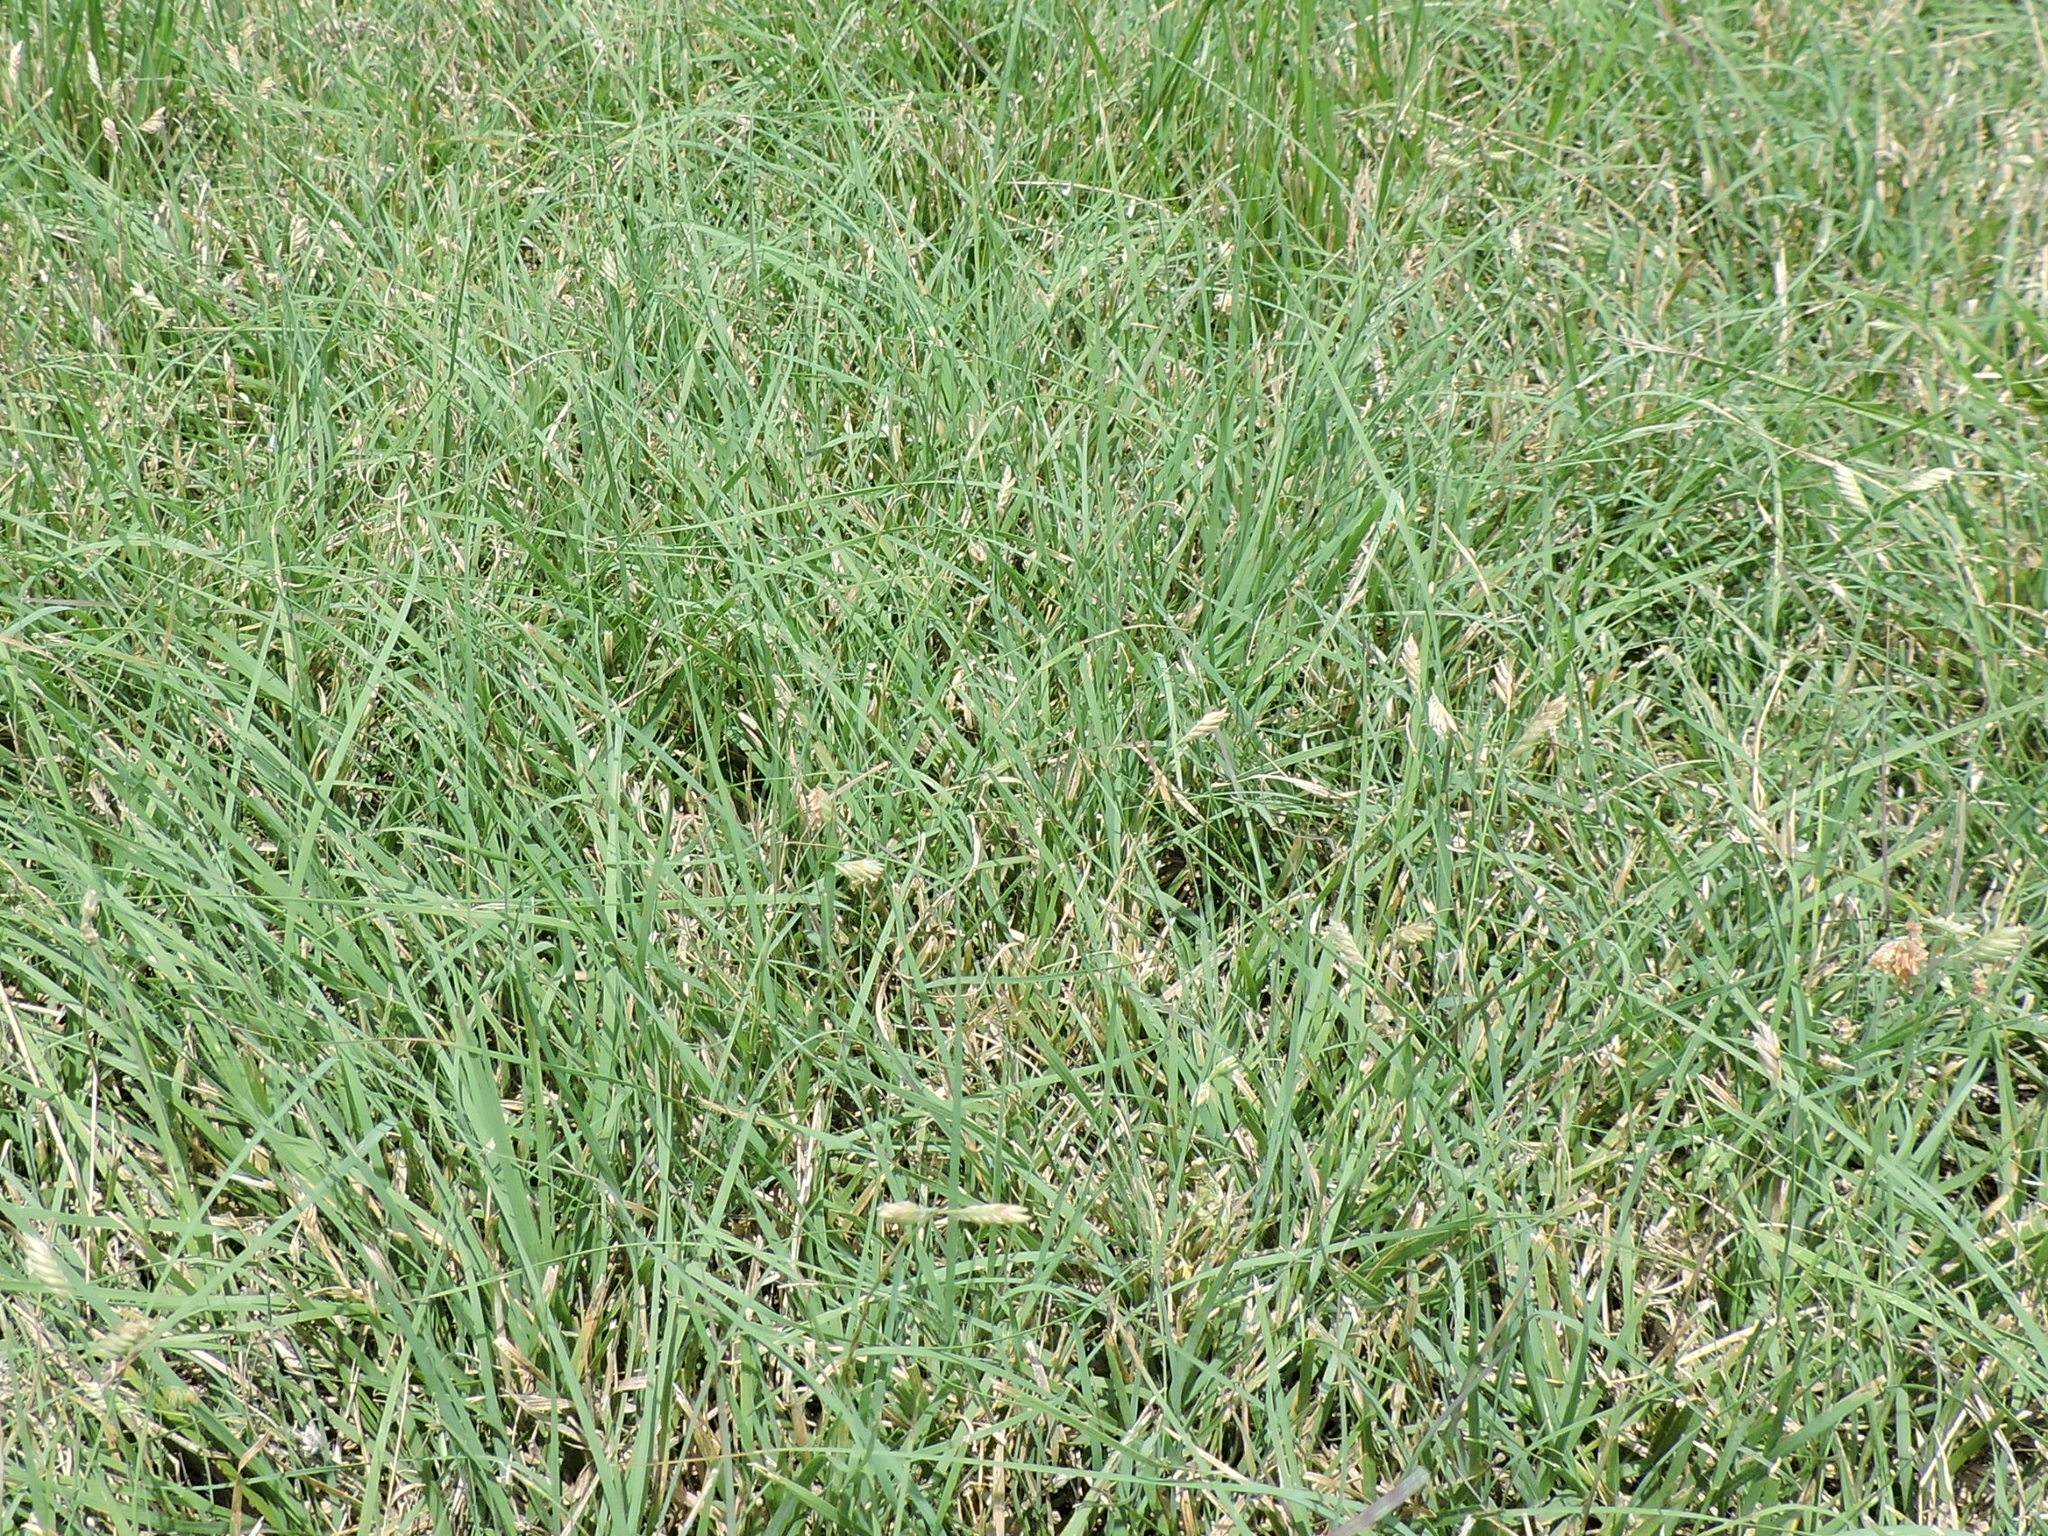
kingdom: Plantae
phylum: Tracheophyta
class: Liliopsida
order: Poales
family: Poaceae
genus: Bouteloua
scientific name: Bouteloua dactyloides
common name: Buffalo grass
